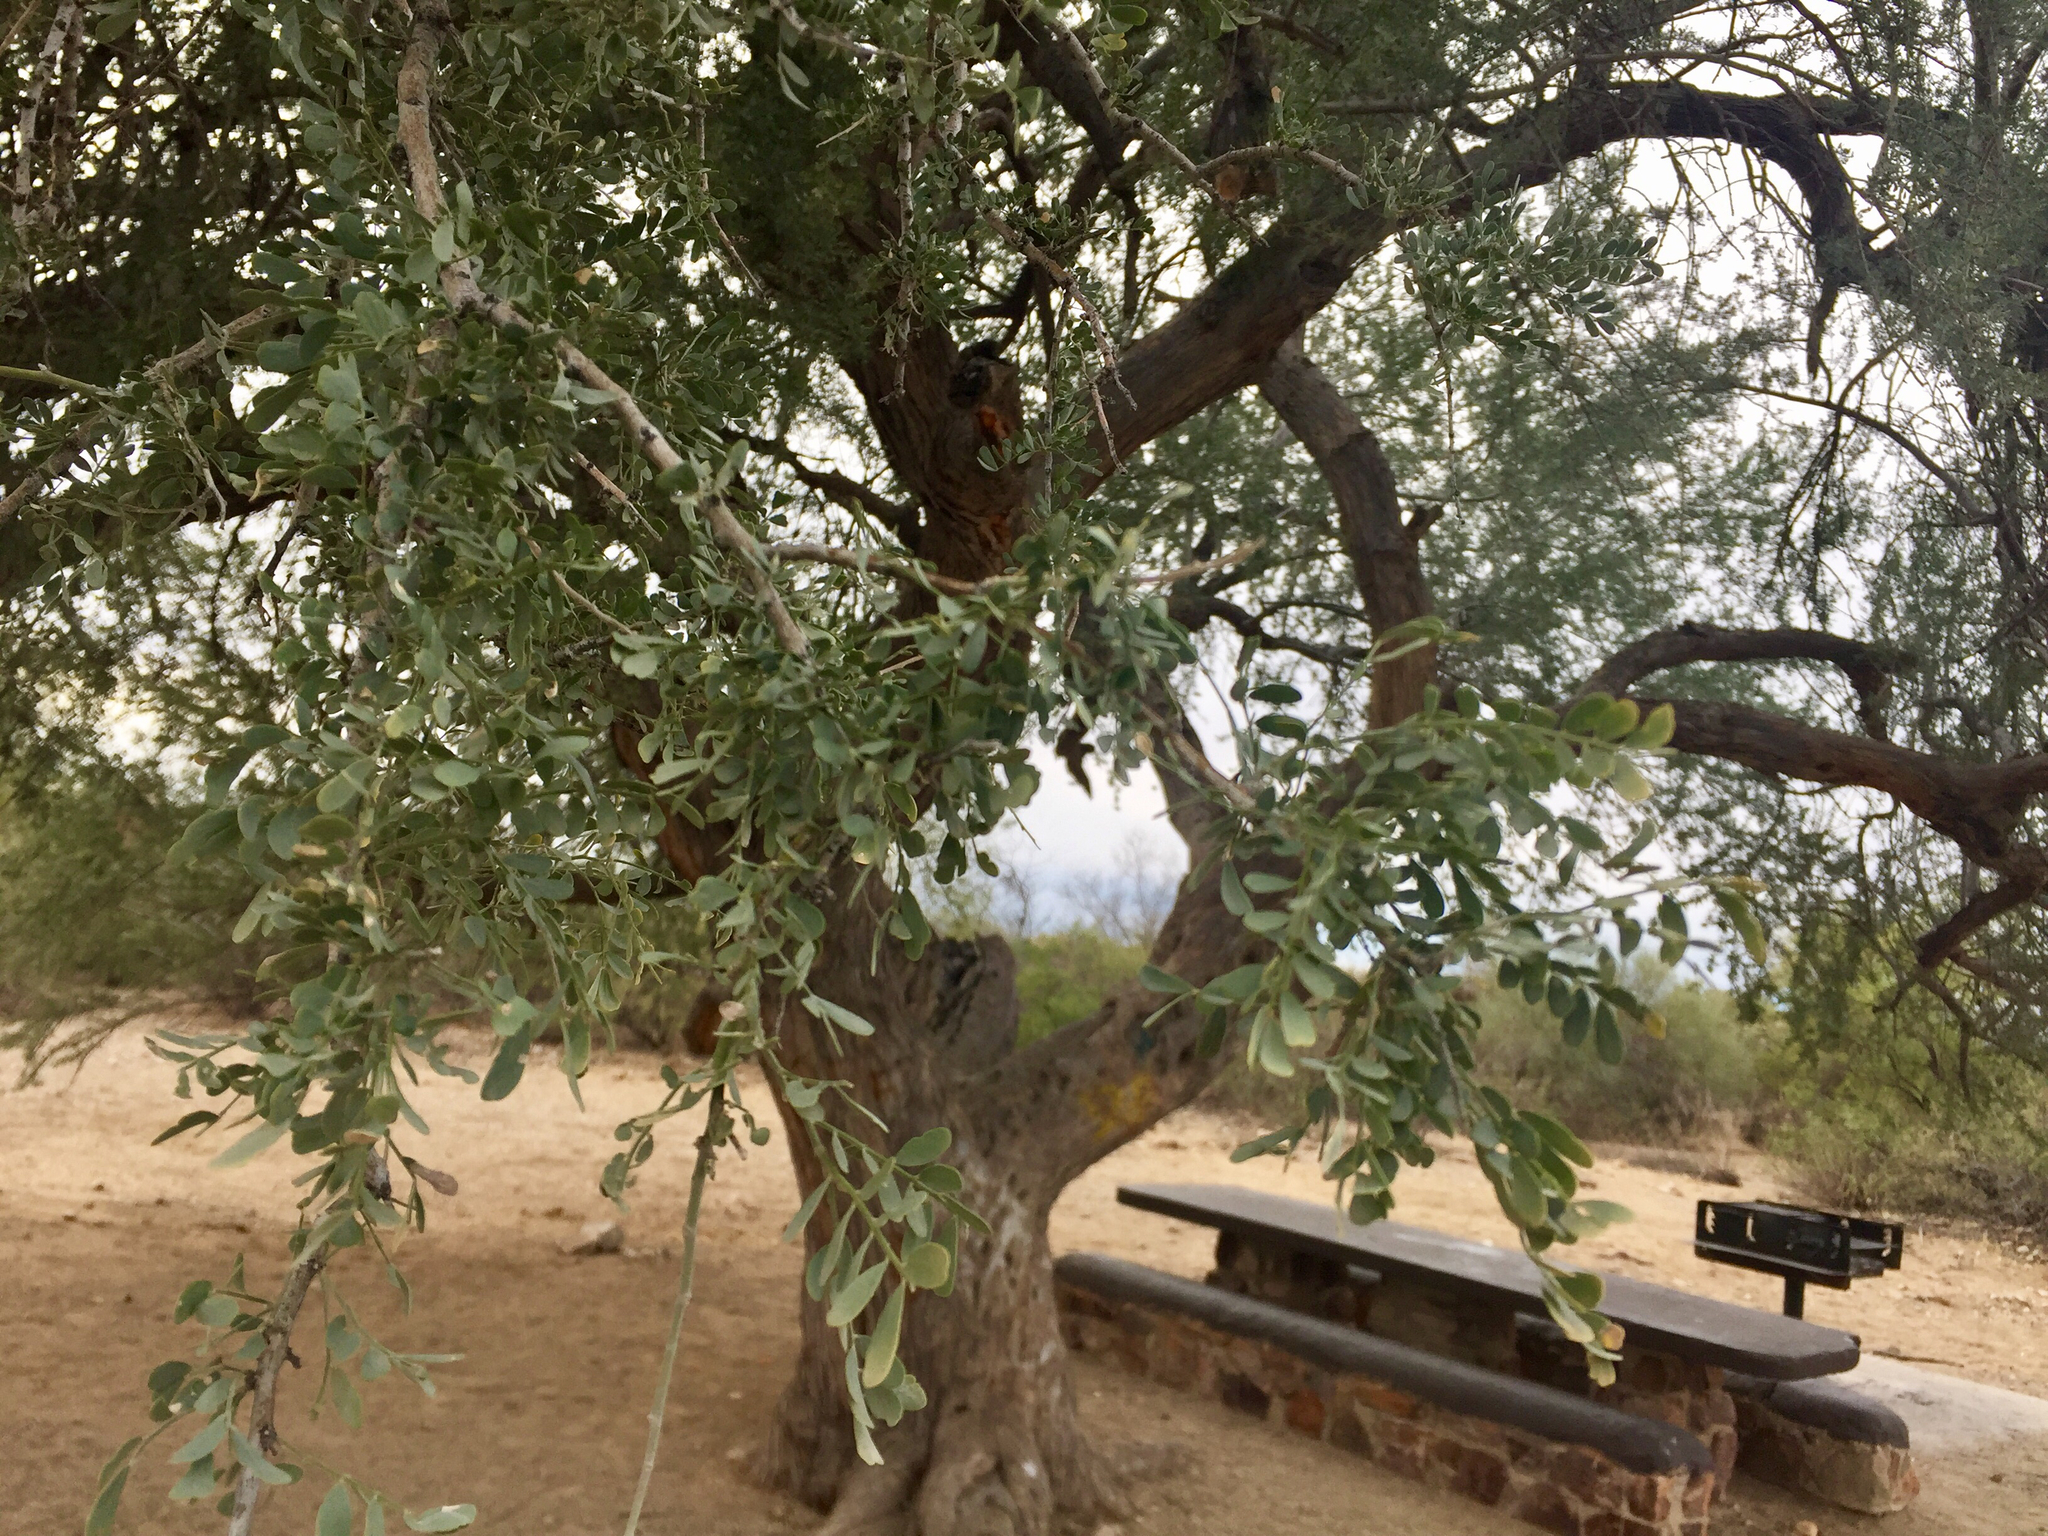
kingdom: Plantae
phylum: Tracheophyta
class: Magnoliopsida
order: Fabales
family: Fabaceae
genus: Olneya
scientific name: Olneya tesota
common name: Desert ironwood
